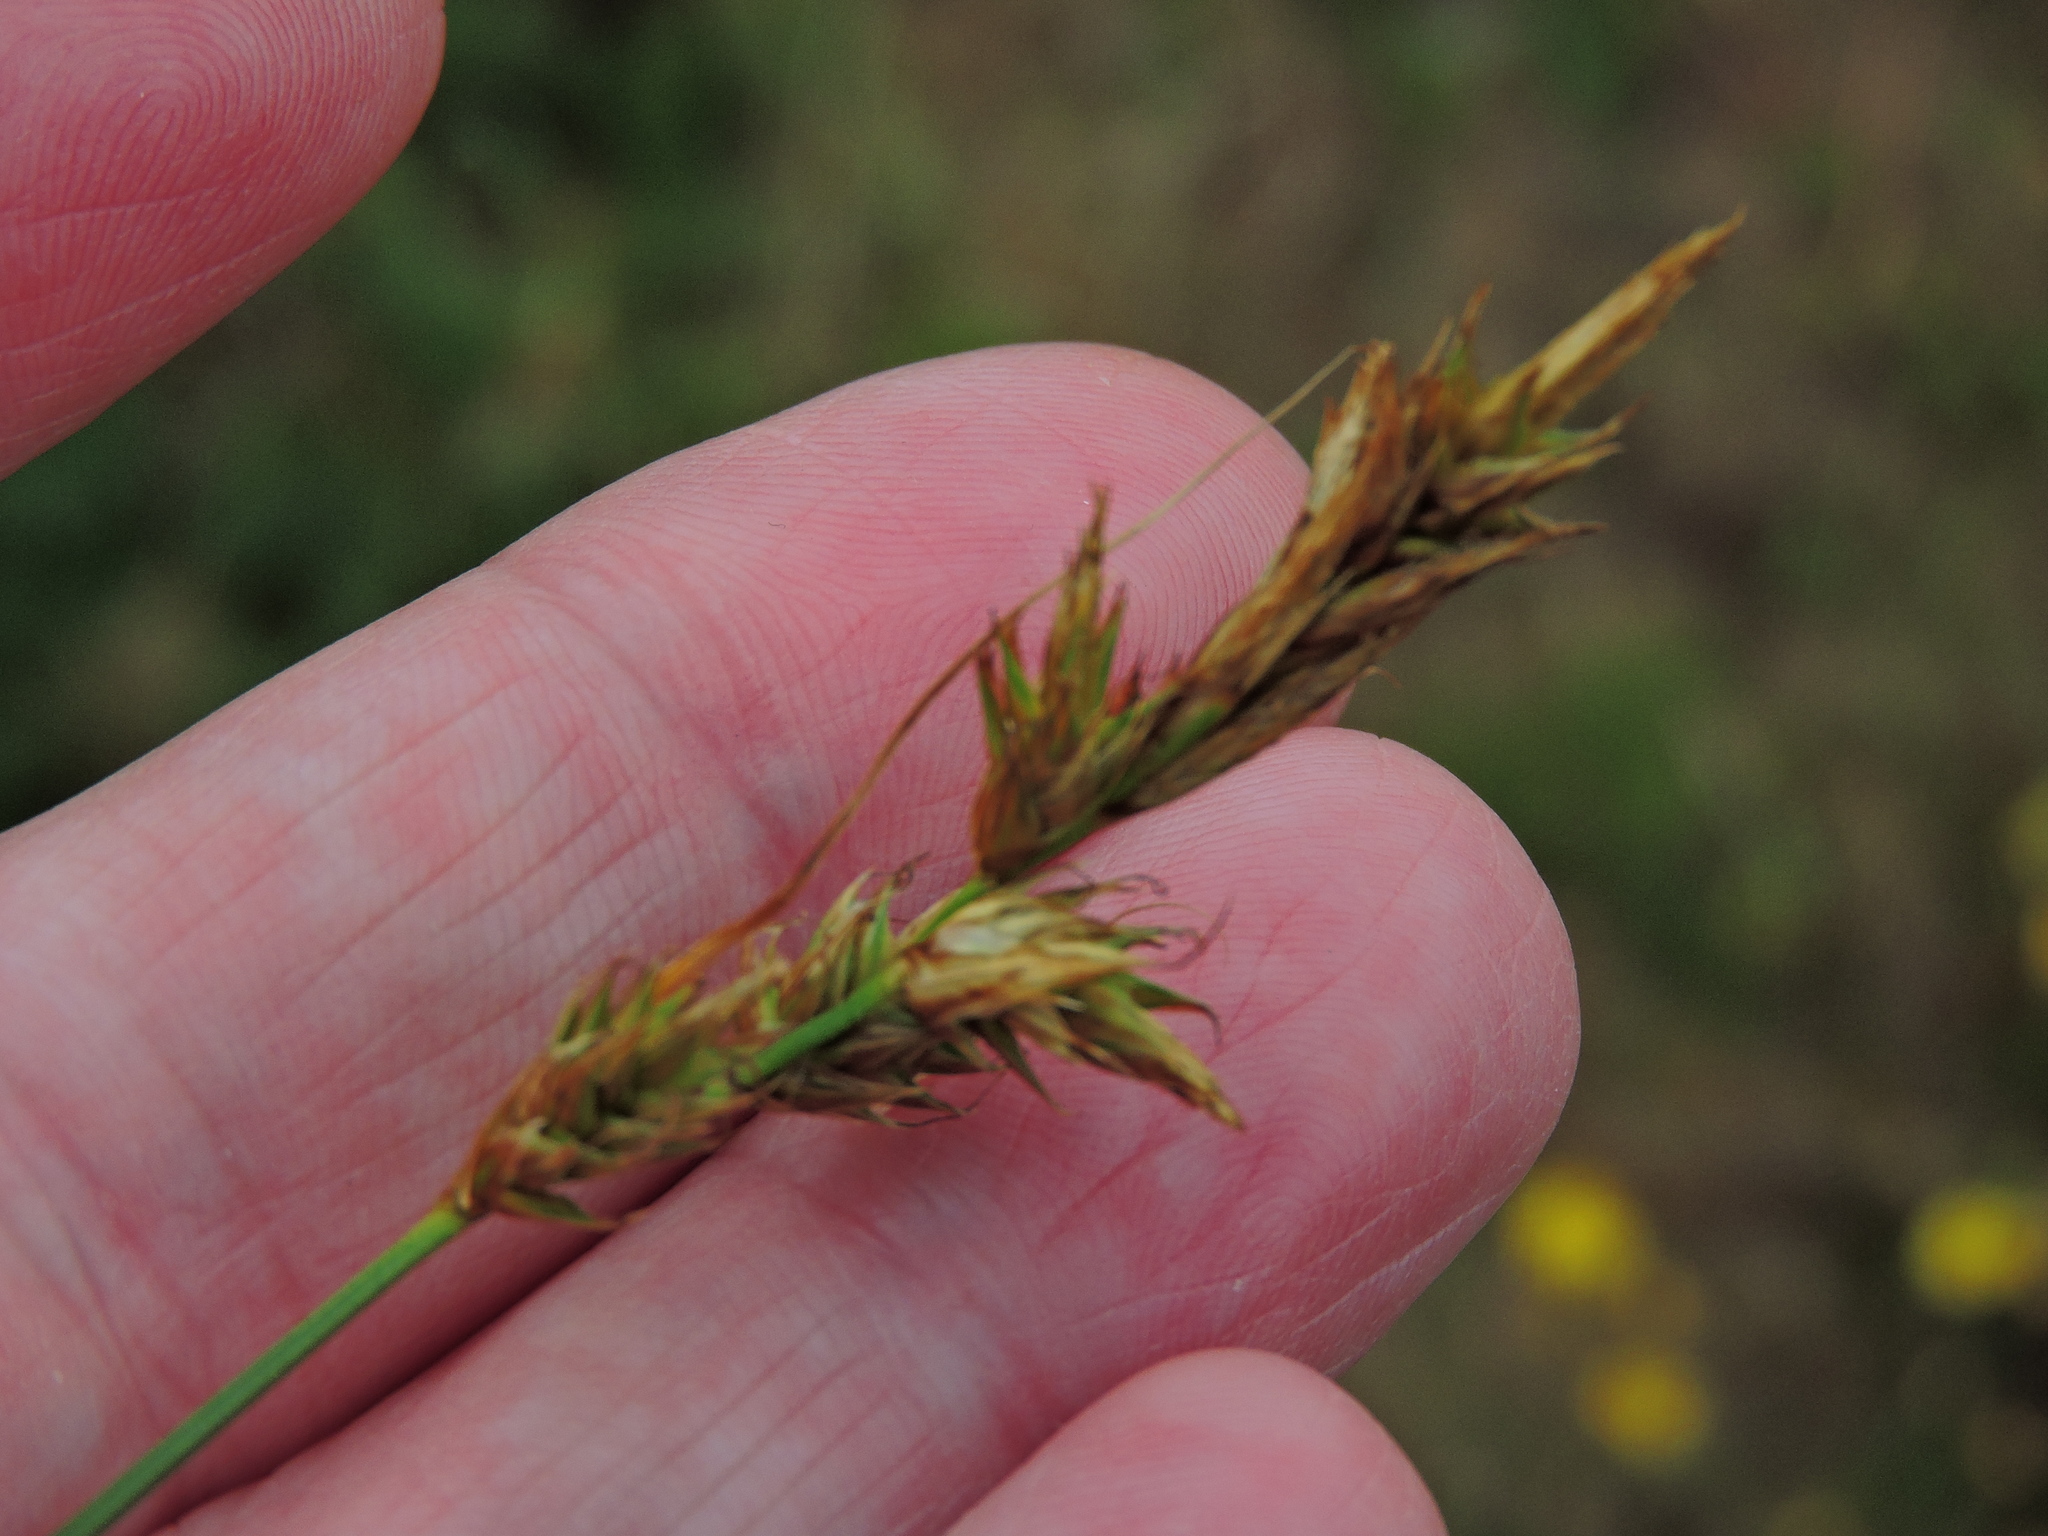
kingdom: Plantae
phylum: Tracheophyta
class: Liliopsida
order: Poales
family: Cyperaceae
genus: Carex
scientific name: Carex arenaria
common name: Sand sedge
